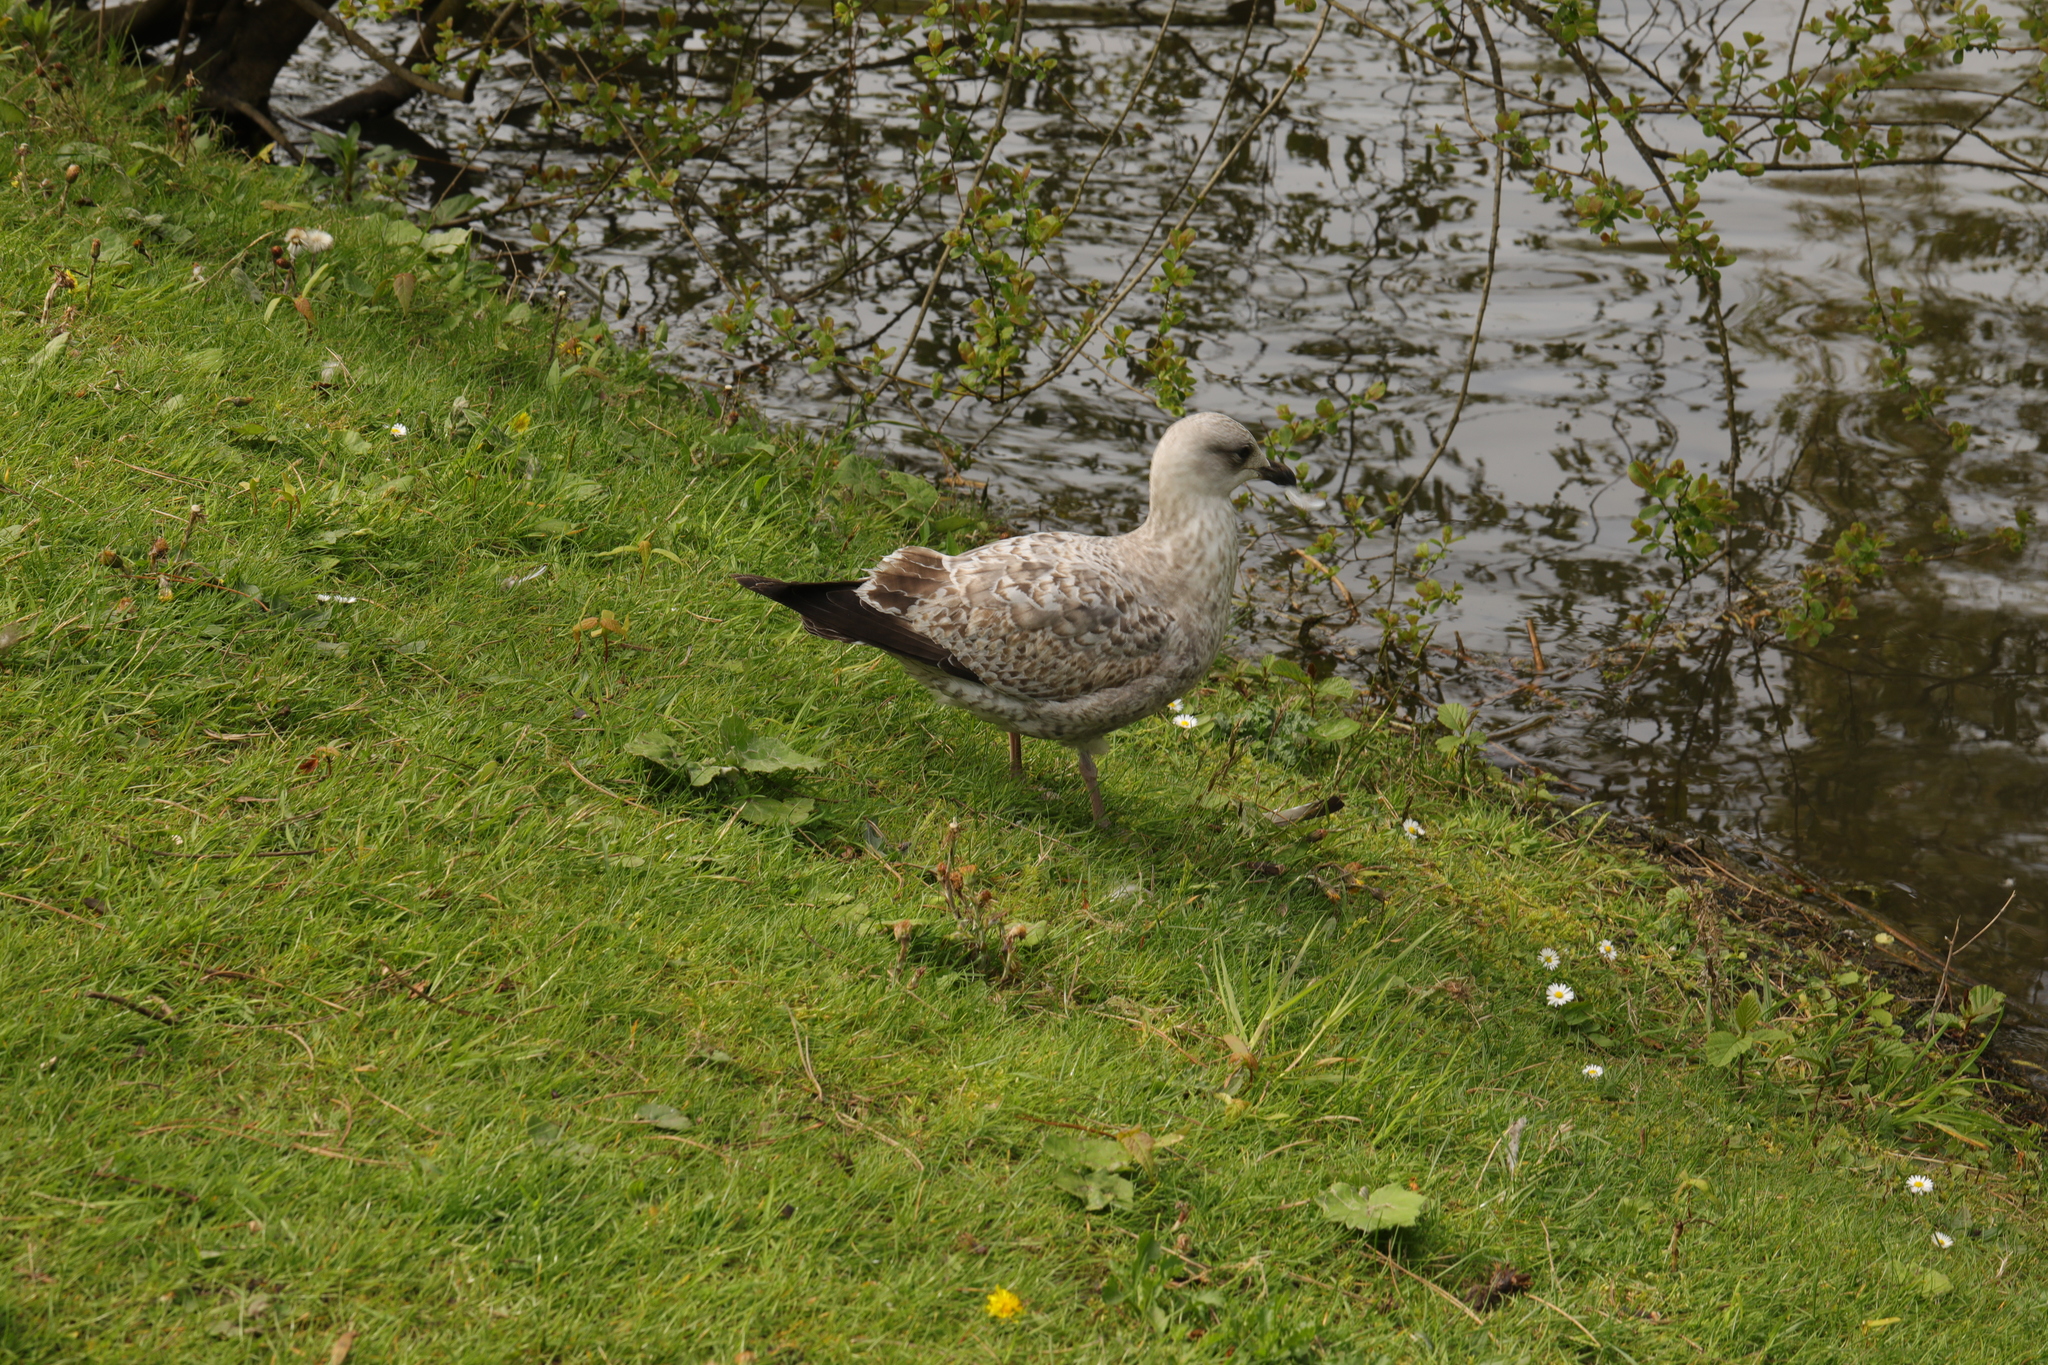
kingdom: Animalia
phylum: Chordata
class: Aves
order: Charadriiformes
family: Laridae
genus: Larus
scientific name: Larus argentatus
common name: Herring gull
